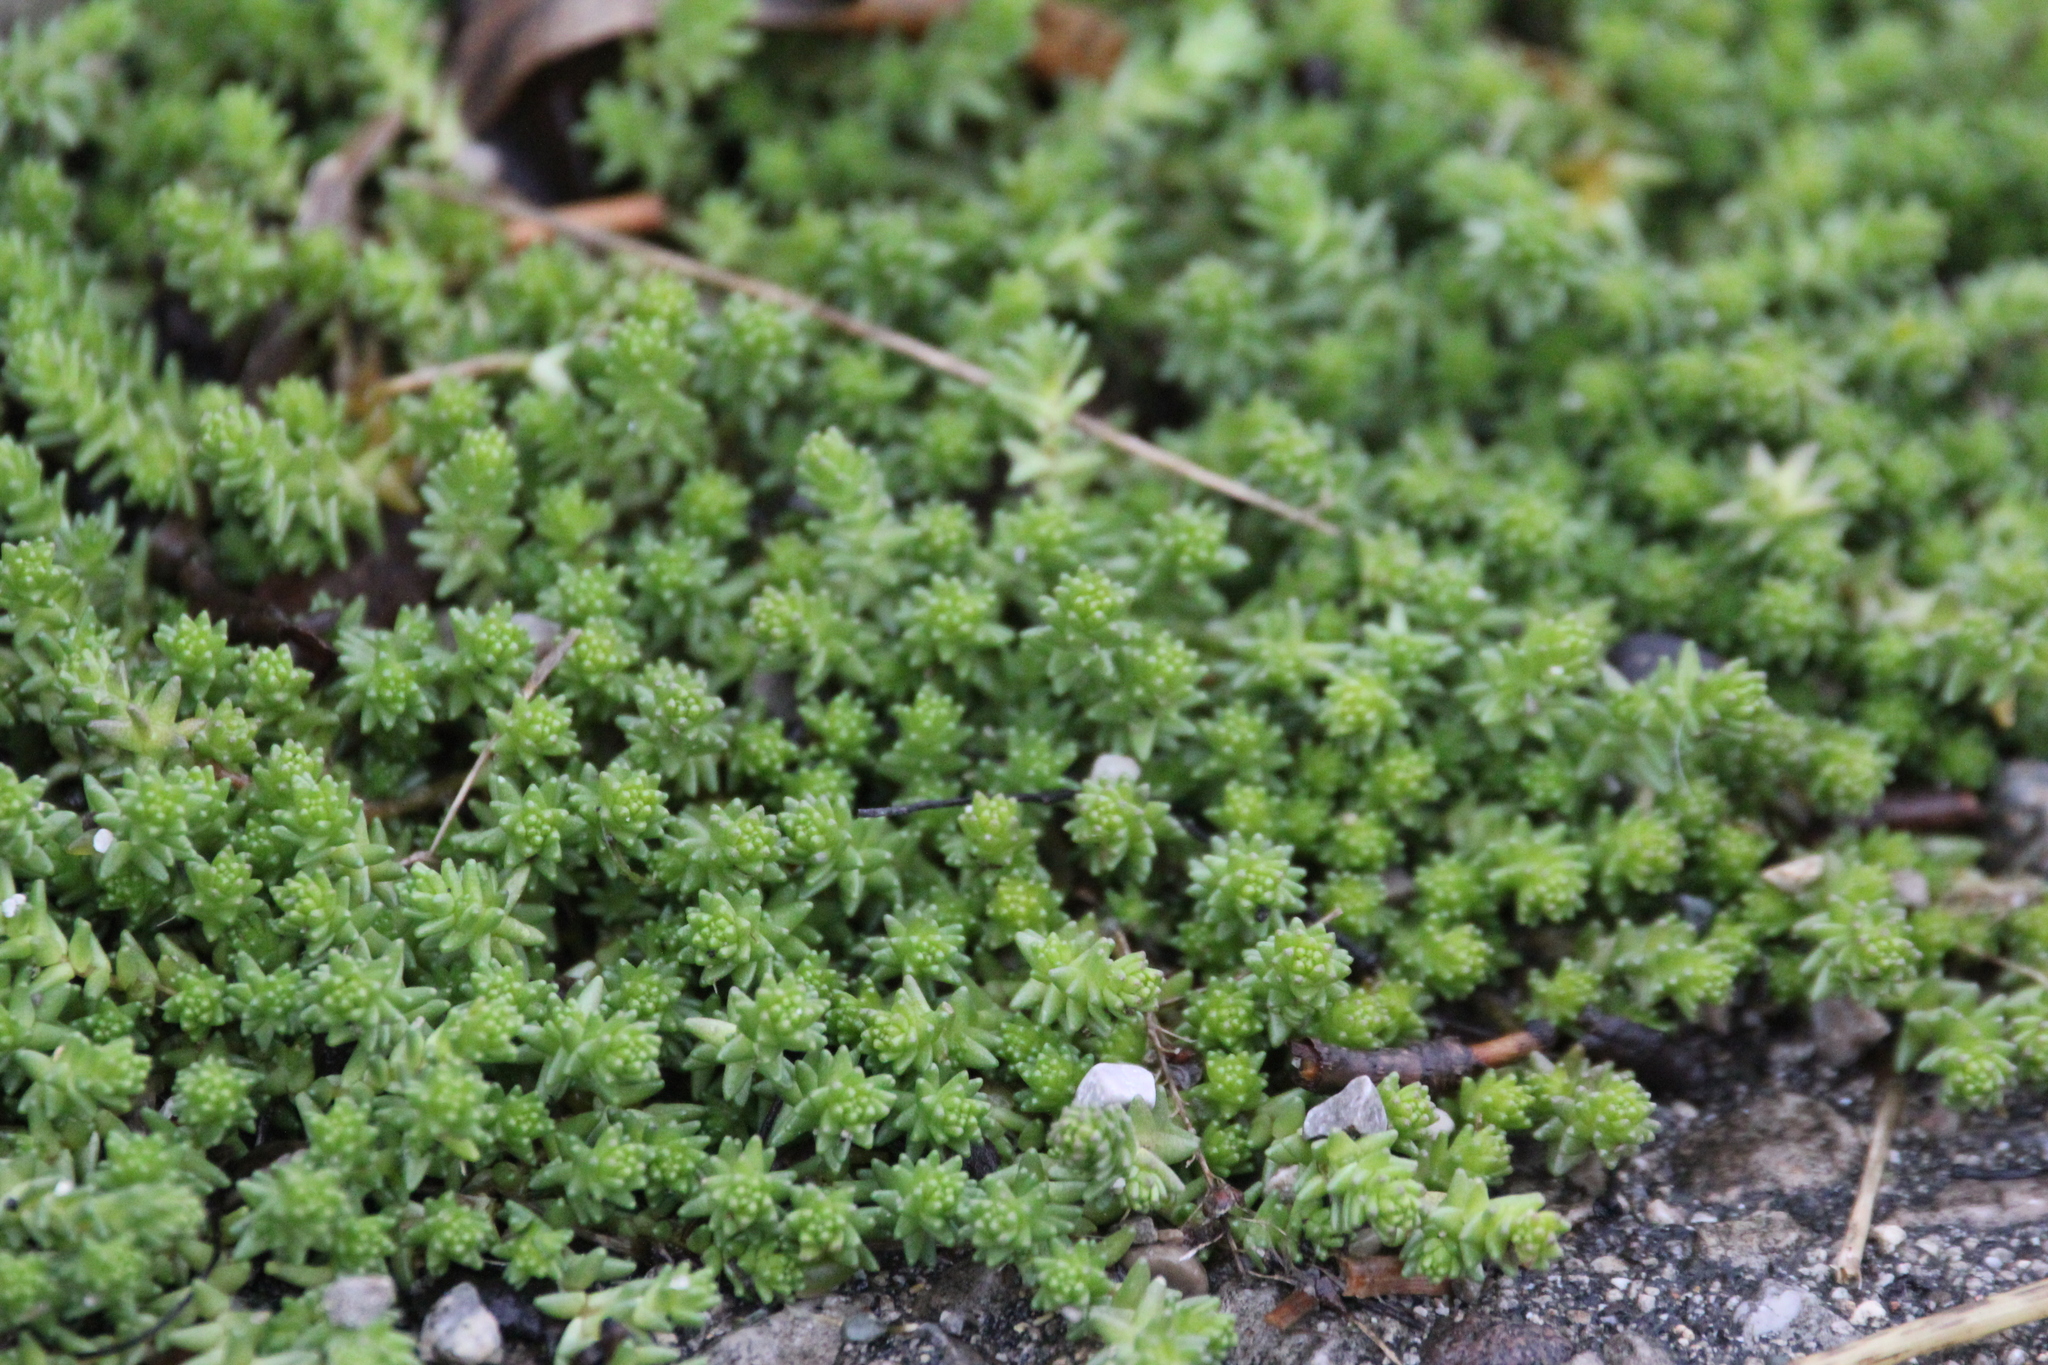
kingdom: Plantae
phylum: Tracheophyta
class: Magnoliopsida
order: Saxifragales
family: Crassulaceae
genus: Sedum
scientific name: Sedum acre
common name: Biting stonecrop
